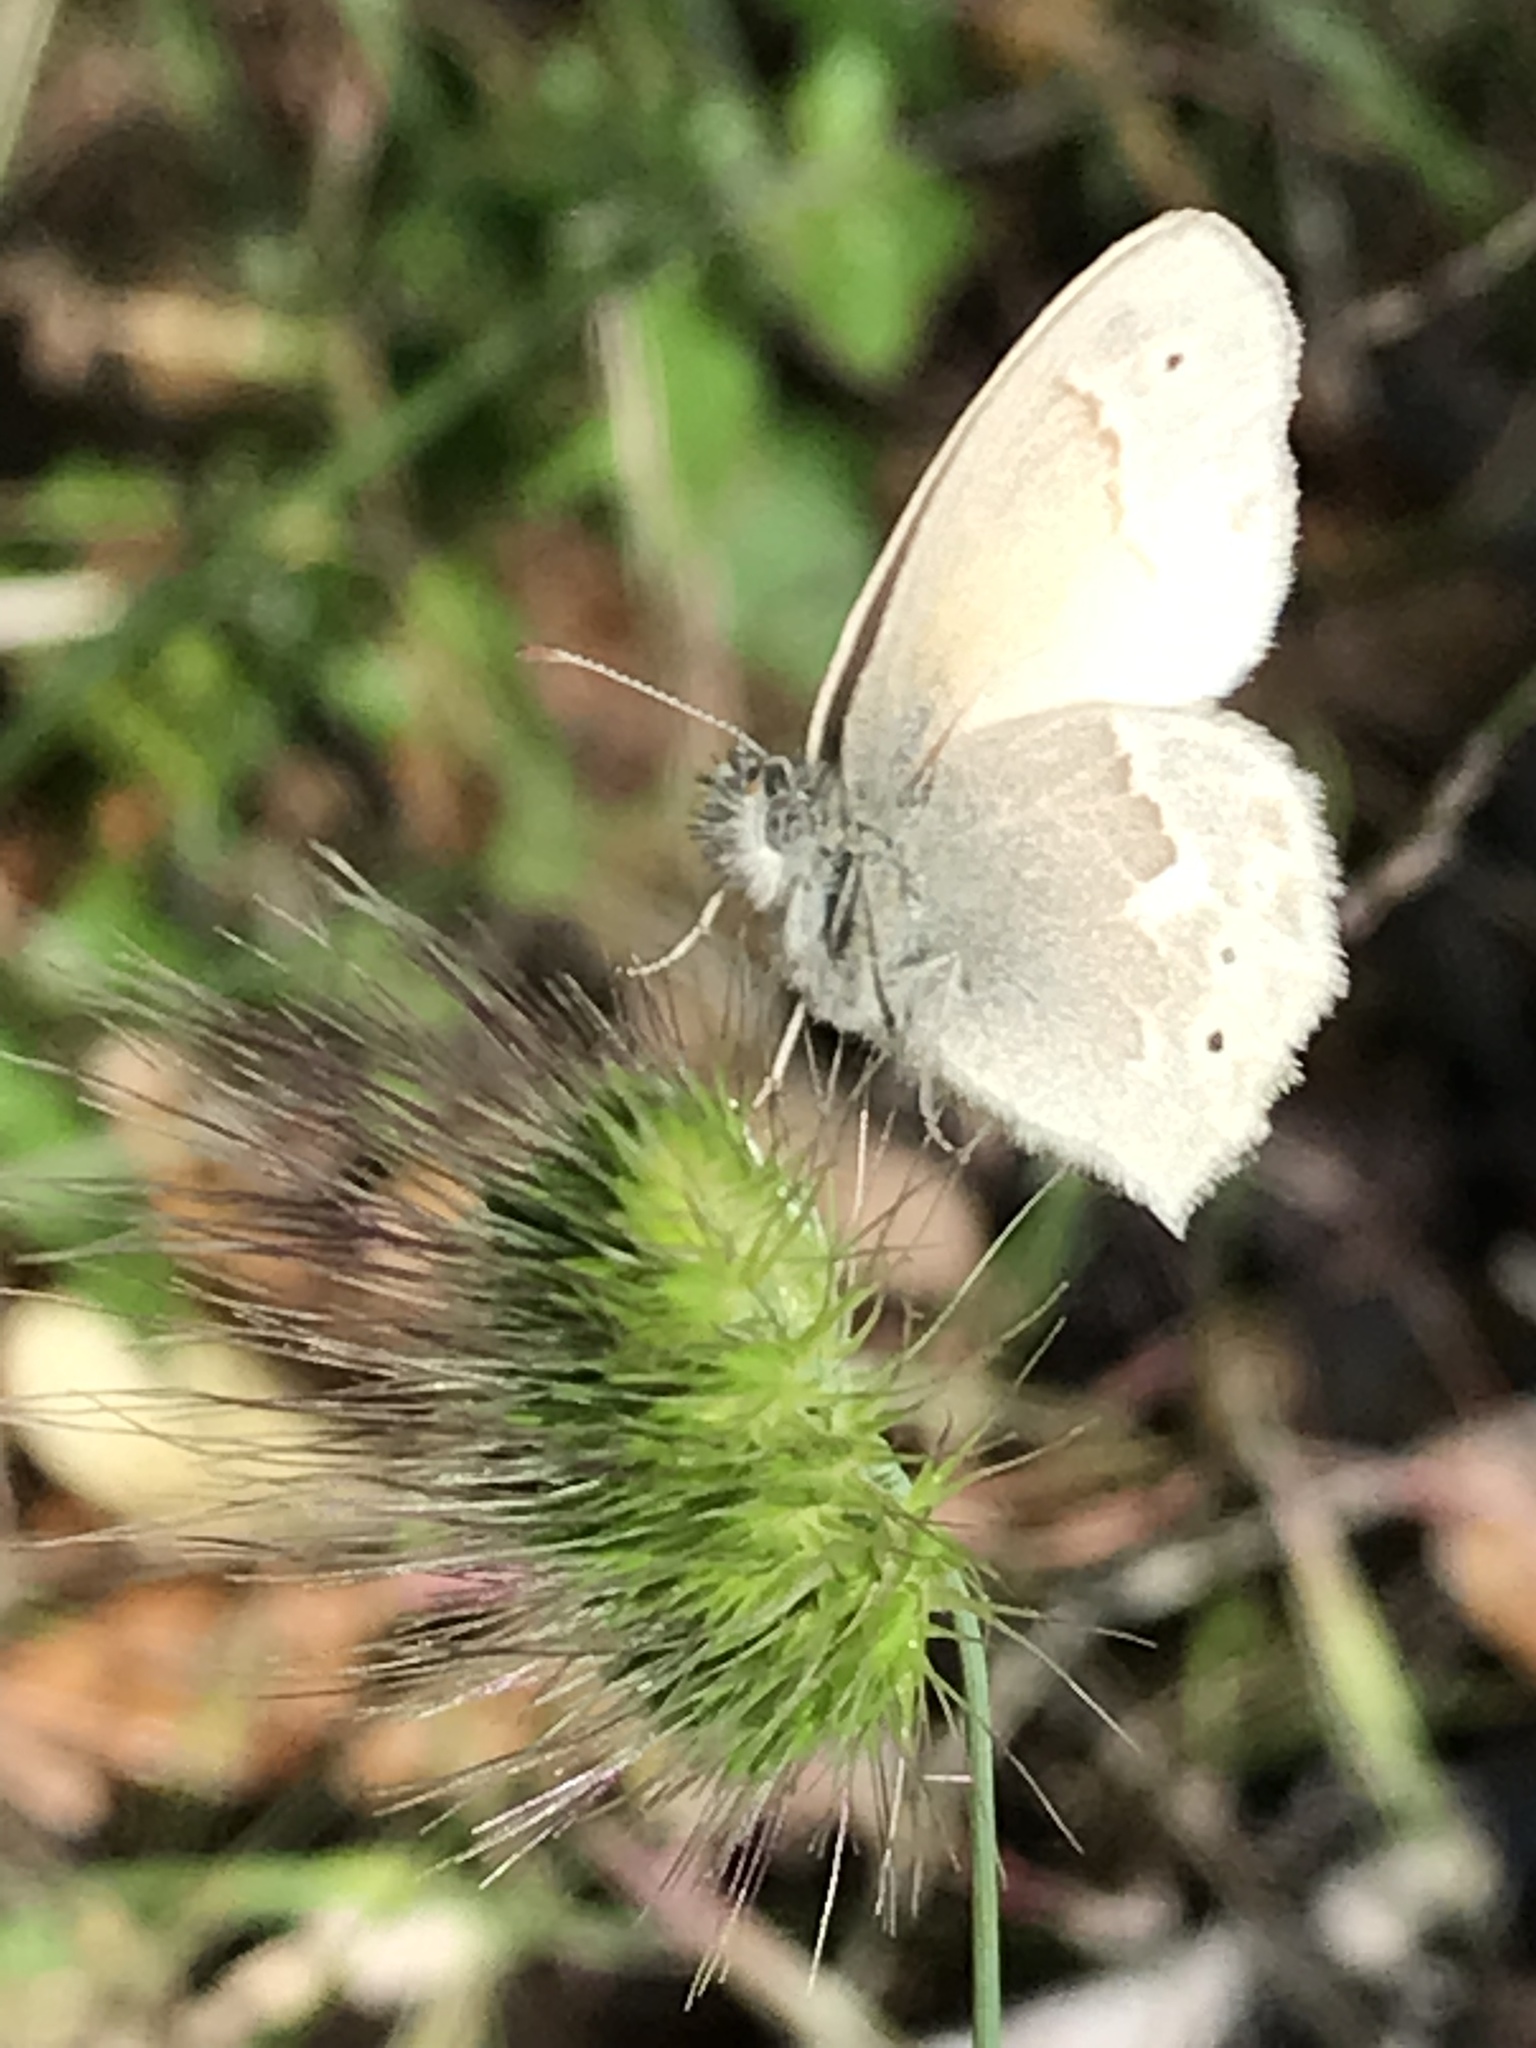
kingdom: Animalia
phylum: Arthropoda
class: Insecta
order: Lepidoptera
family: Nymphalidae
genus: Coenonympha
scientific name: Coenonympha california
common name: Common ringlet
